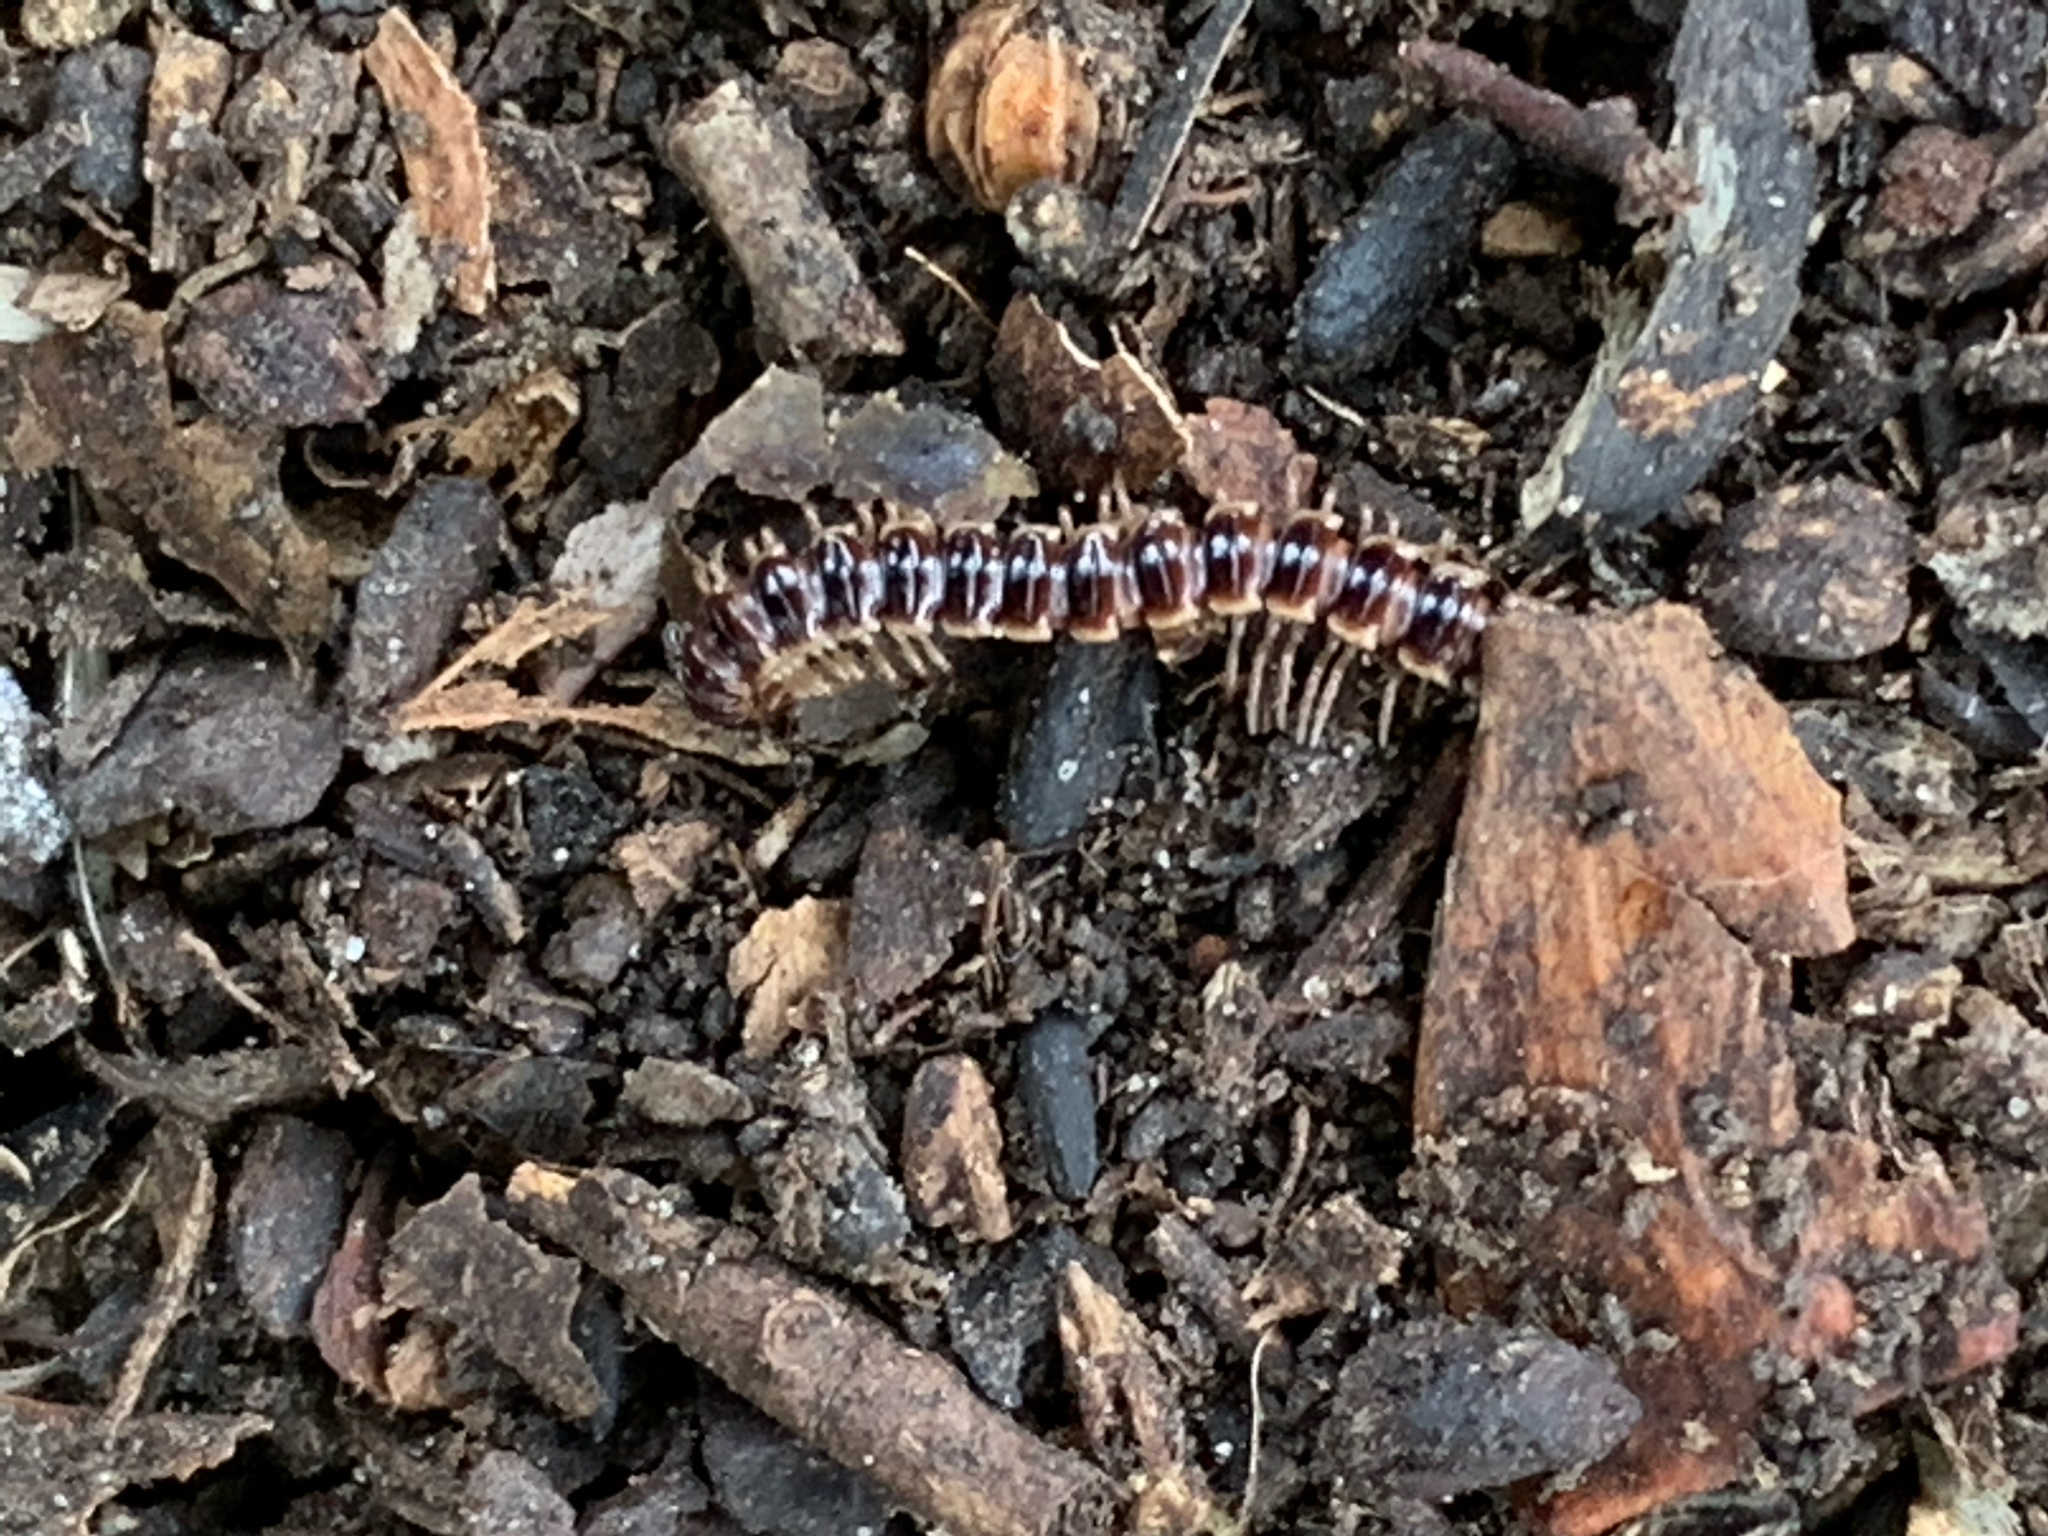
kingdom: Animalia
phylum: Arthropoda
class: Diplopoda
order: Polydesmida
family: Paradoxosomatidae
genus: Oxidus
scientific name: Oxidus gracilis
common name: Greenhouse millipede
